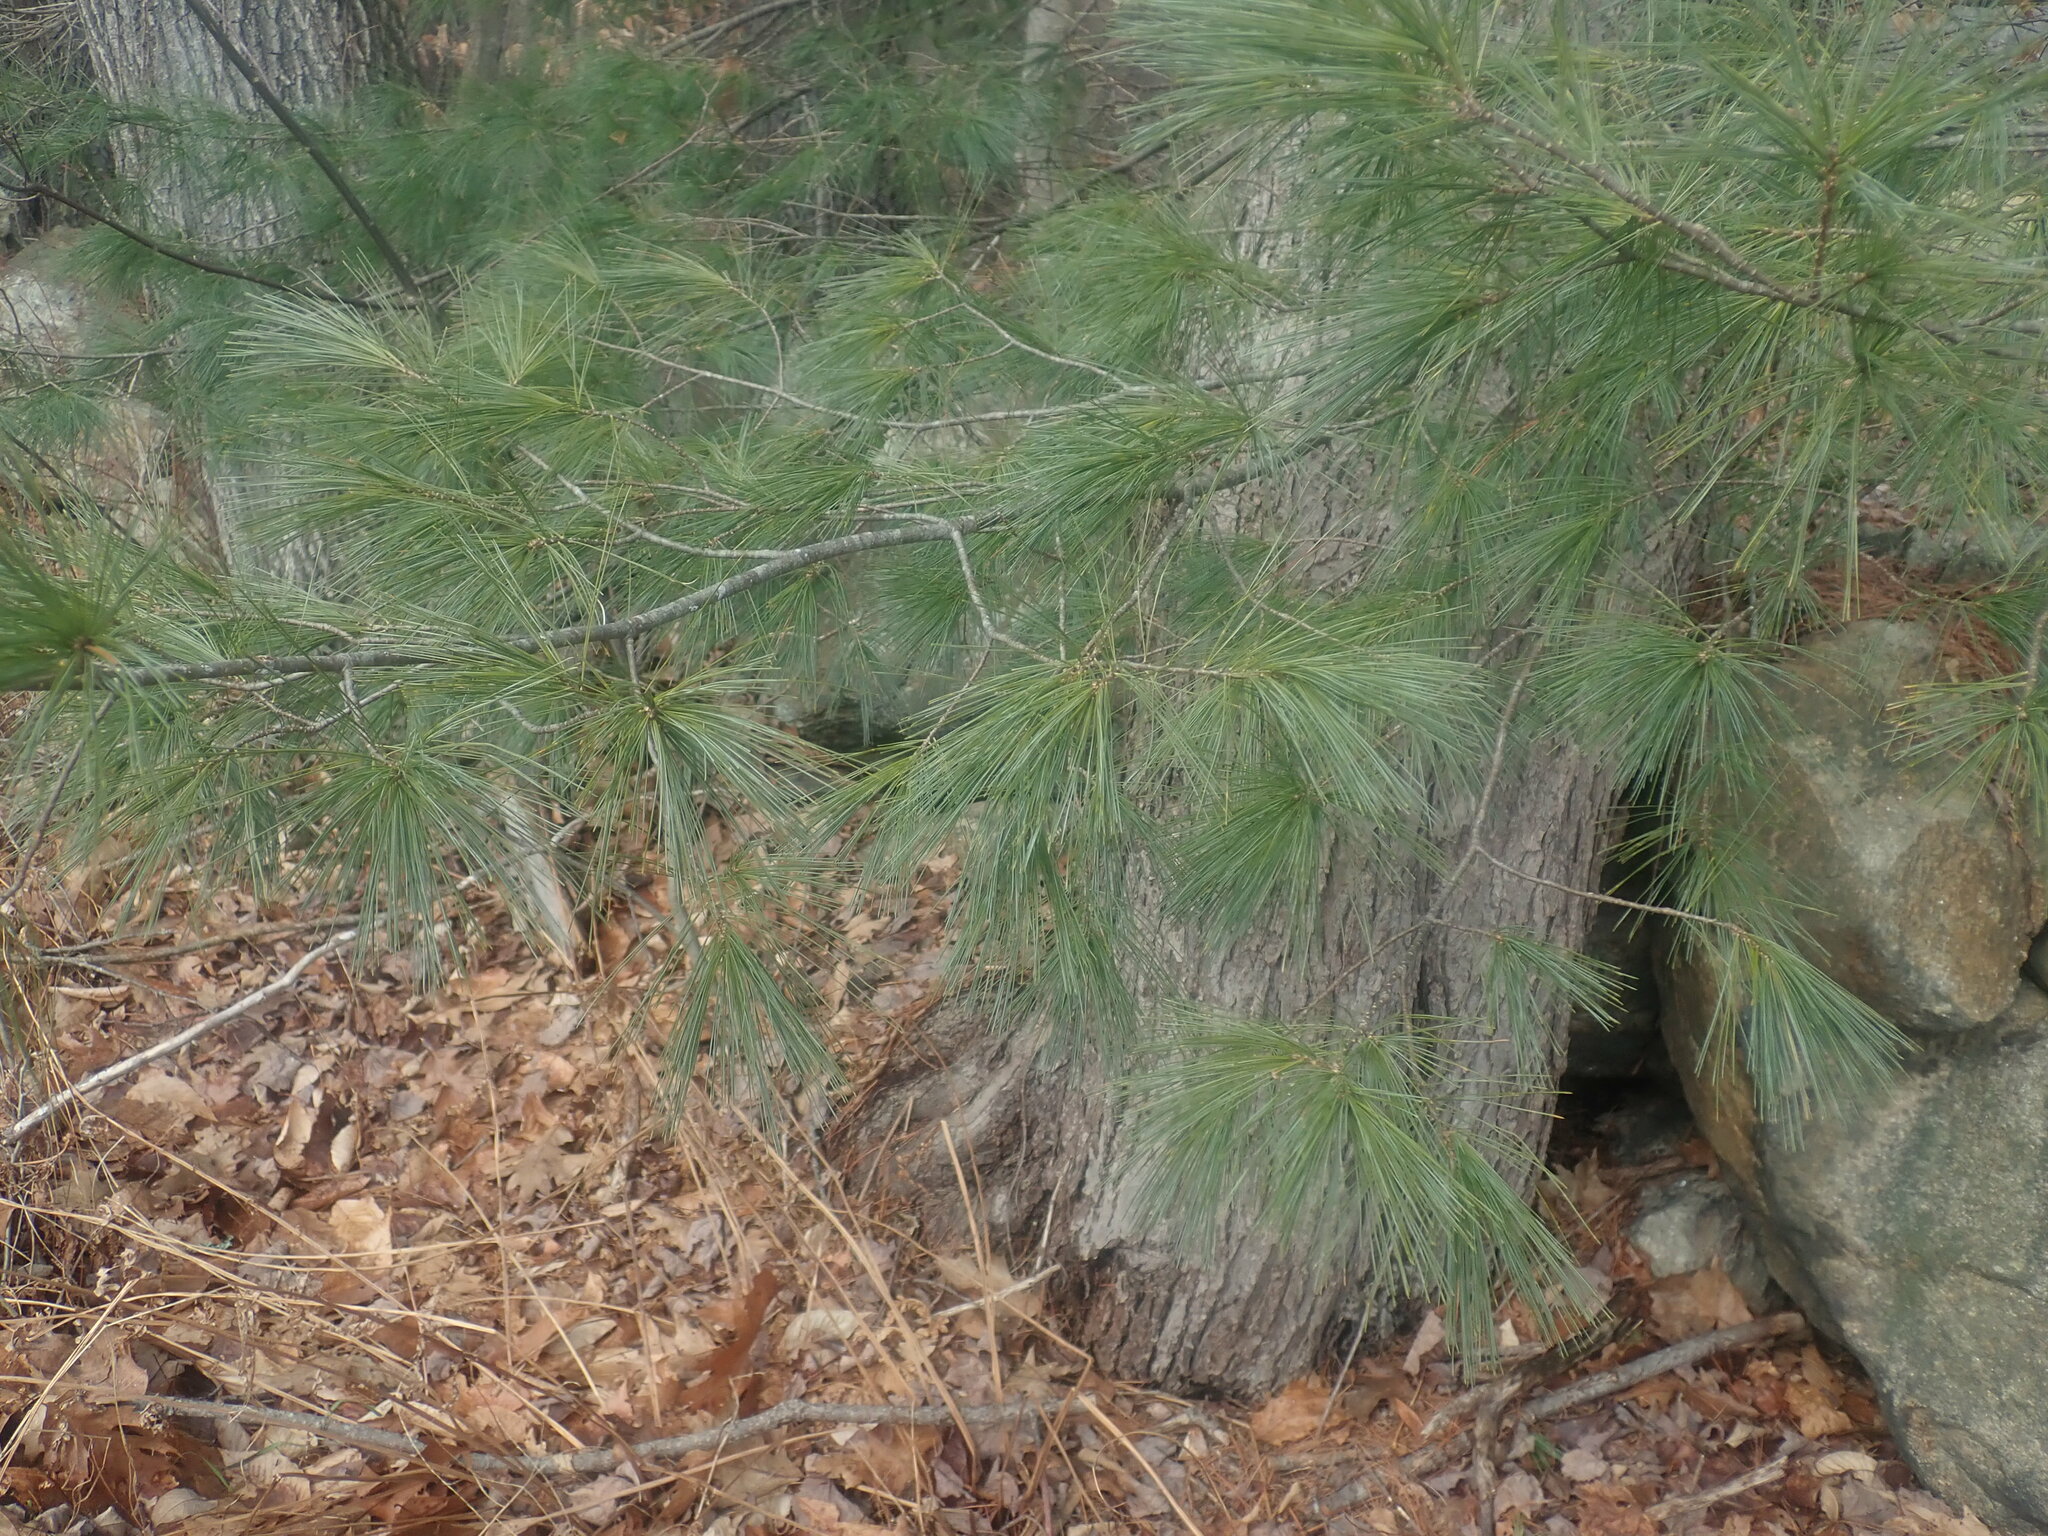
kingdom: Plantae
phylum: Tracheophyta
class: Pinopsida
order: Pinales
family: Pinaceae
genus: Pinus
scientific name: Pinus strobus
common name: Weymouth pine
